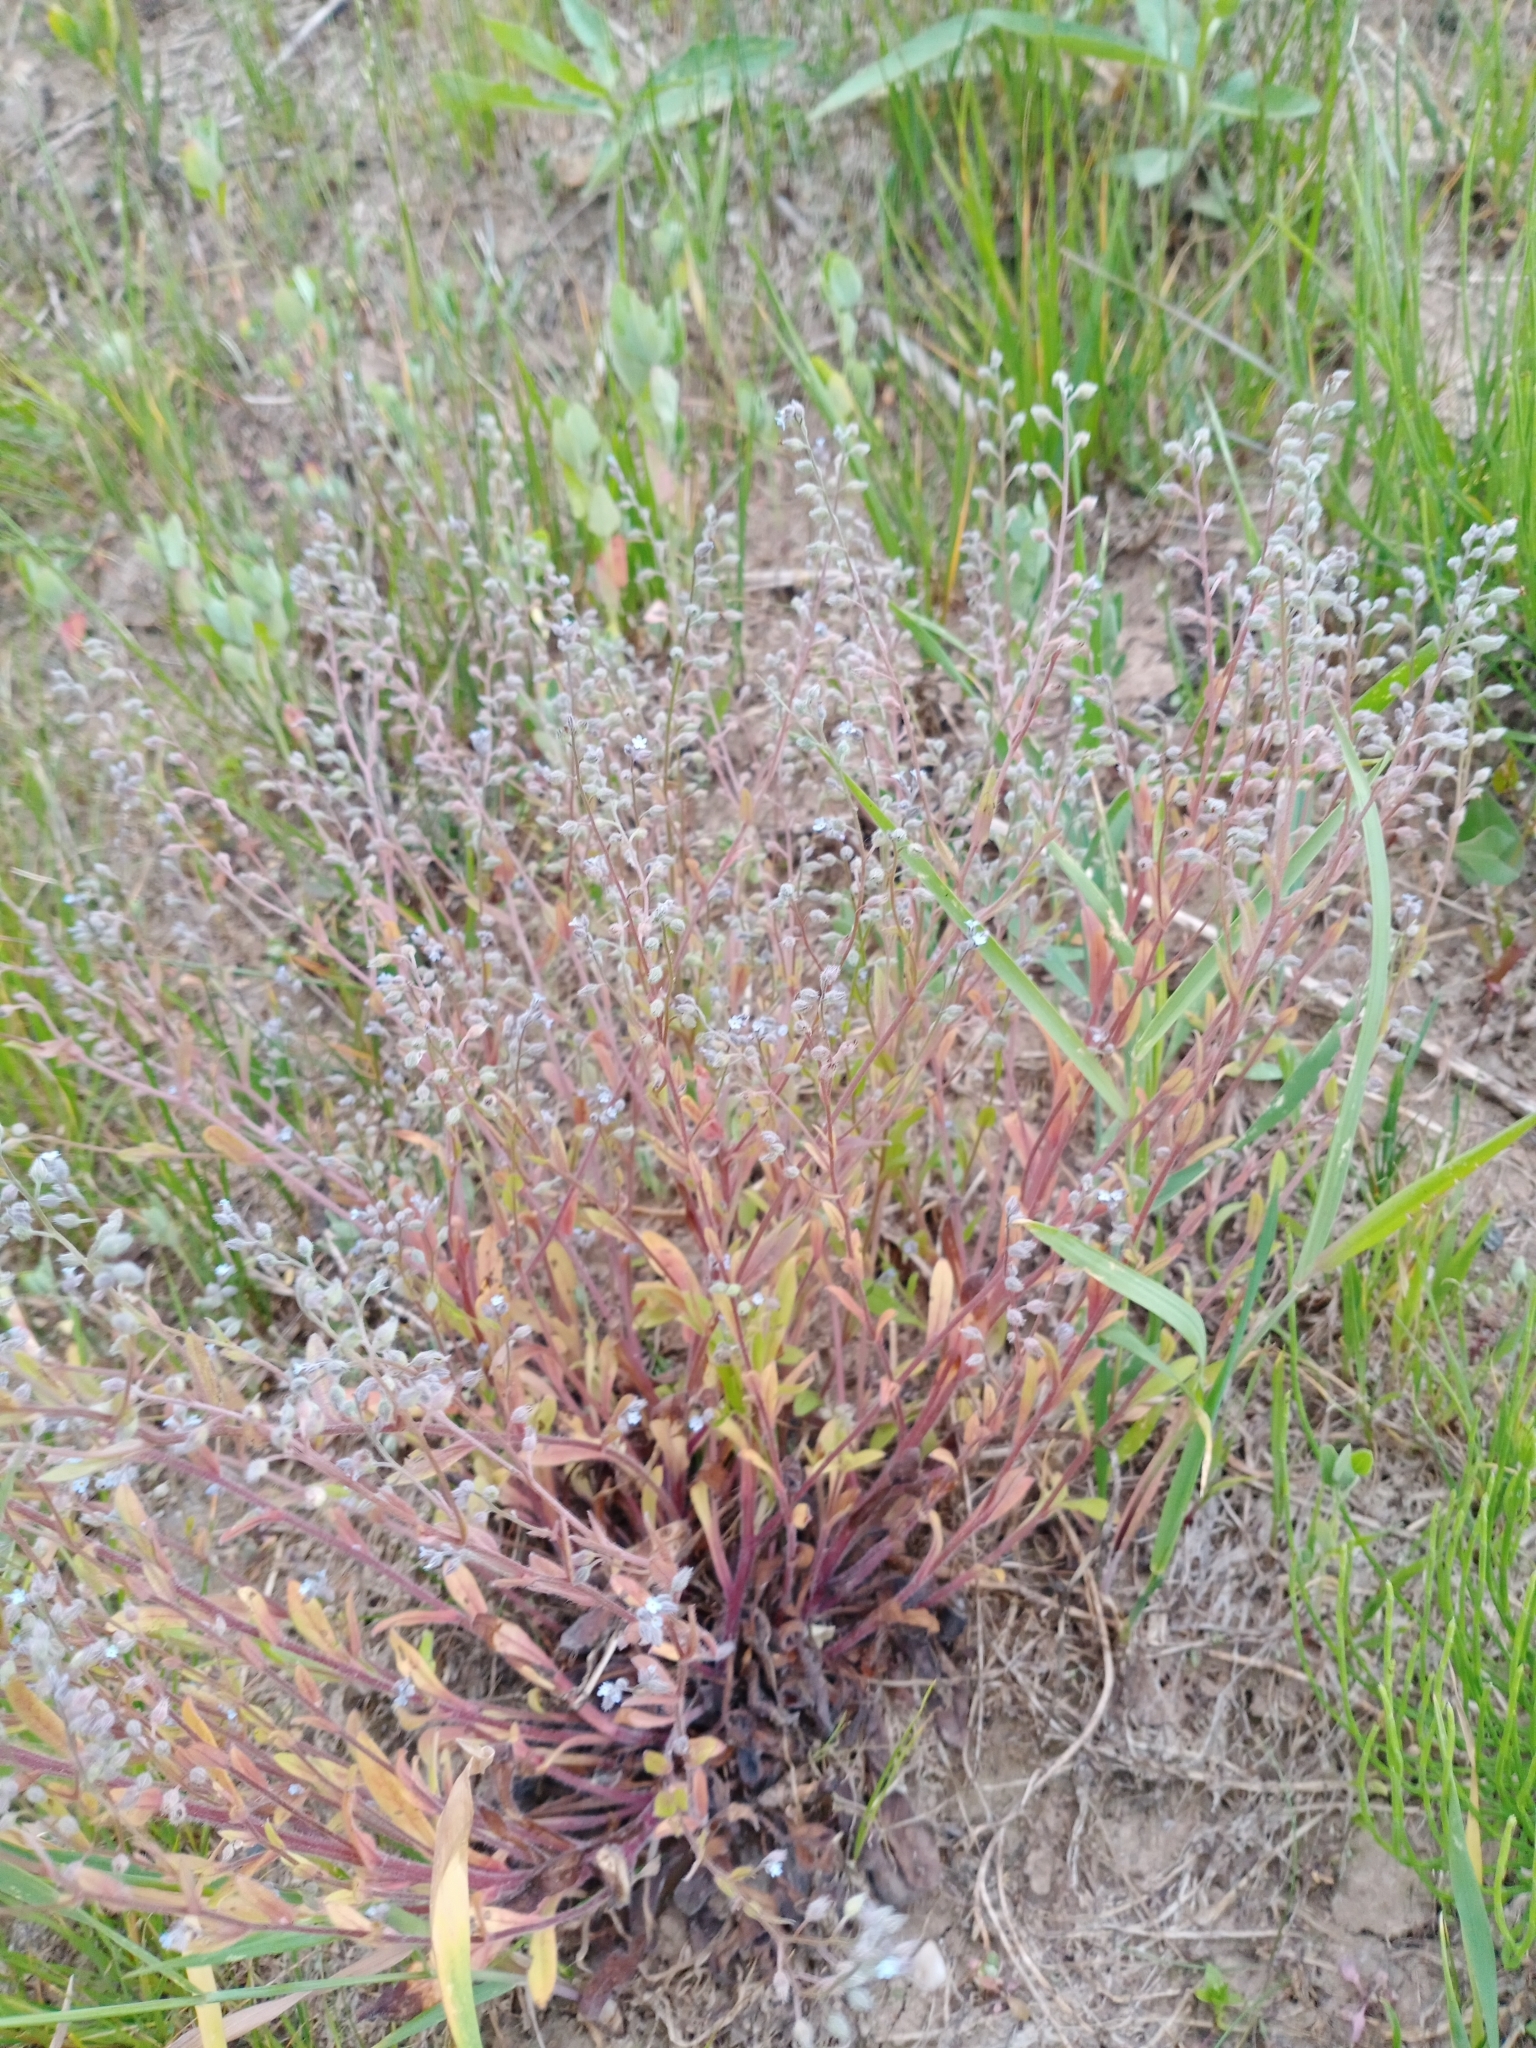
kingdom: Plantae
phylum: Tracheophyta
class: Magnoliopsida
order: Boraginales
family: Boraginaceae
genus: Myosotis
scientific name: Myosotis arvensis
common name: Field forget-me-not
